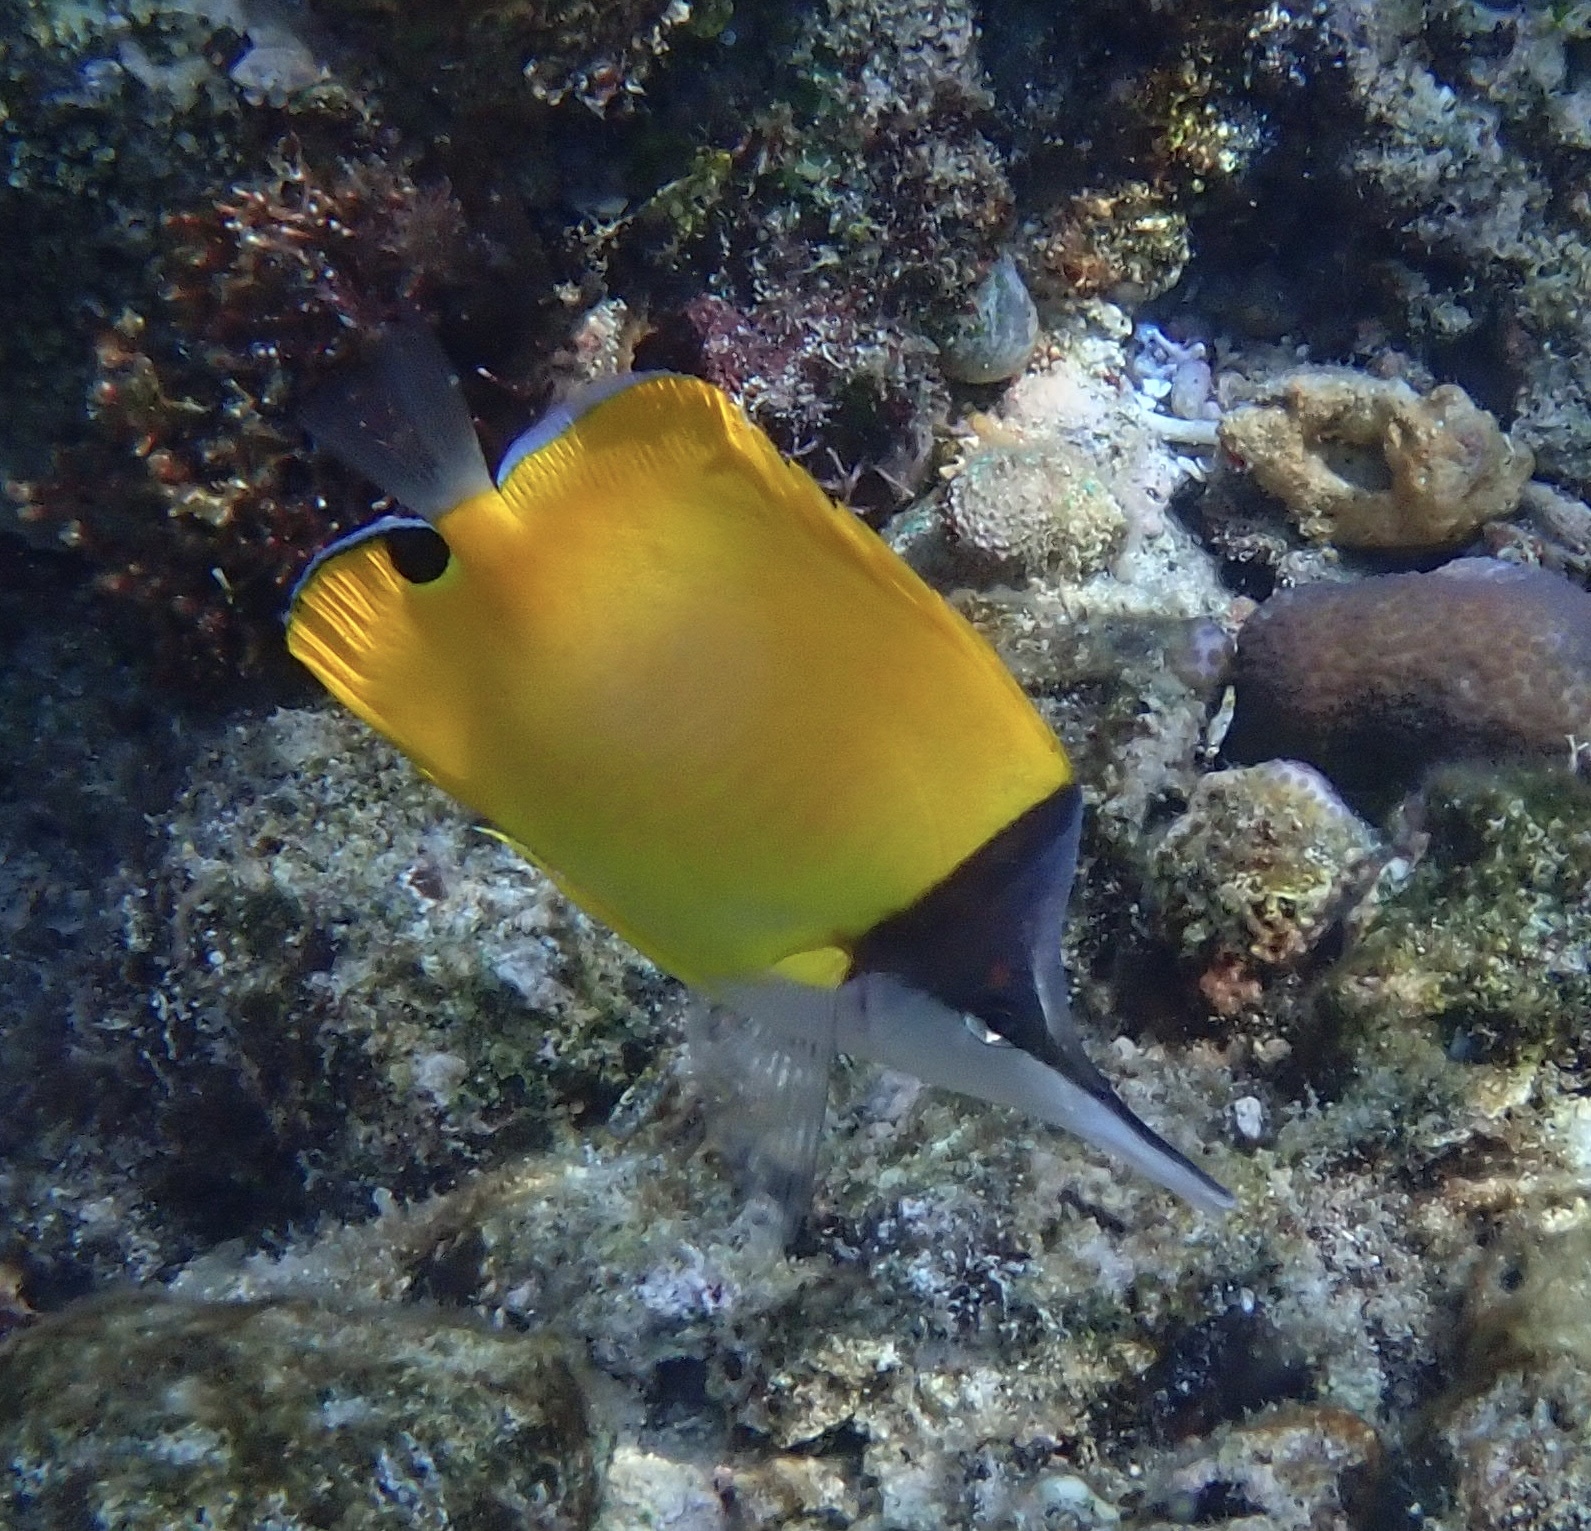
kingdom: Animalia
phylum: Chordata
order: Perciformes
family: Chaetodontidae
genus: Forcipiger
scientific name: Forcipiger flavissimus
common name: Forcepsfish
